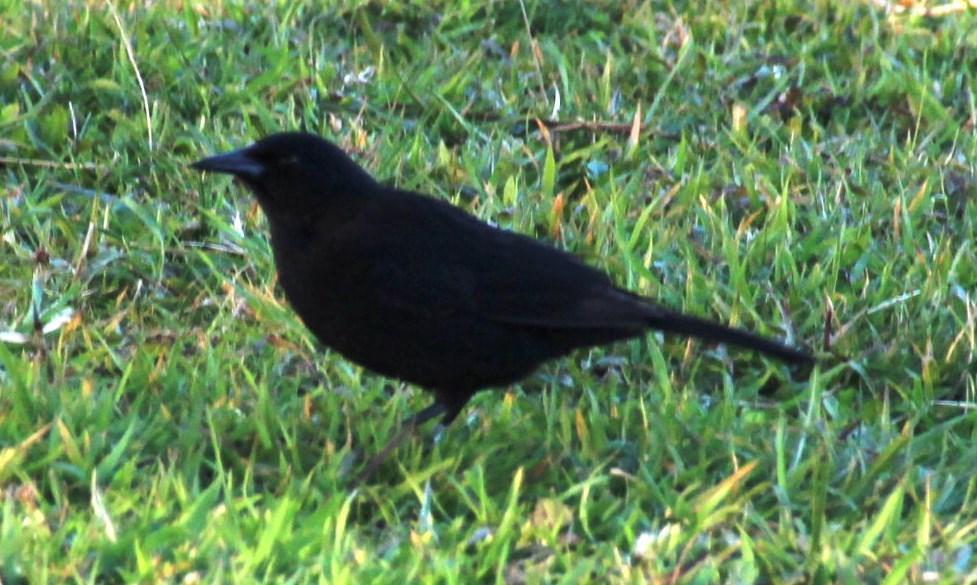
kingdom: Animalia
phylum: Chordata
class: Aves
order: Passeriformes
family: Icteridae
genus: Curaeus
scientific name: Curaeus curaeus
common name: Austral blackbird
